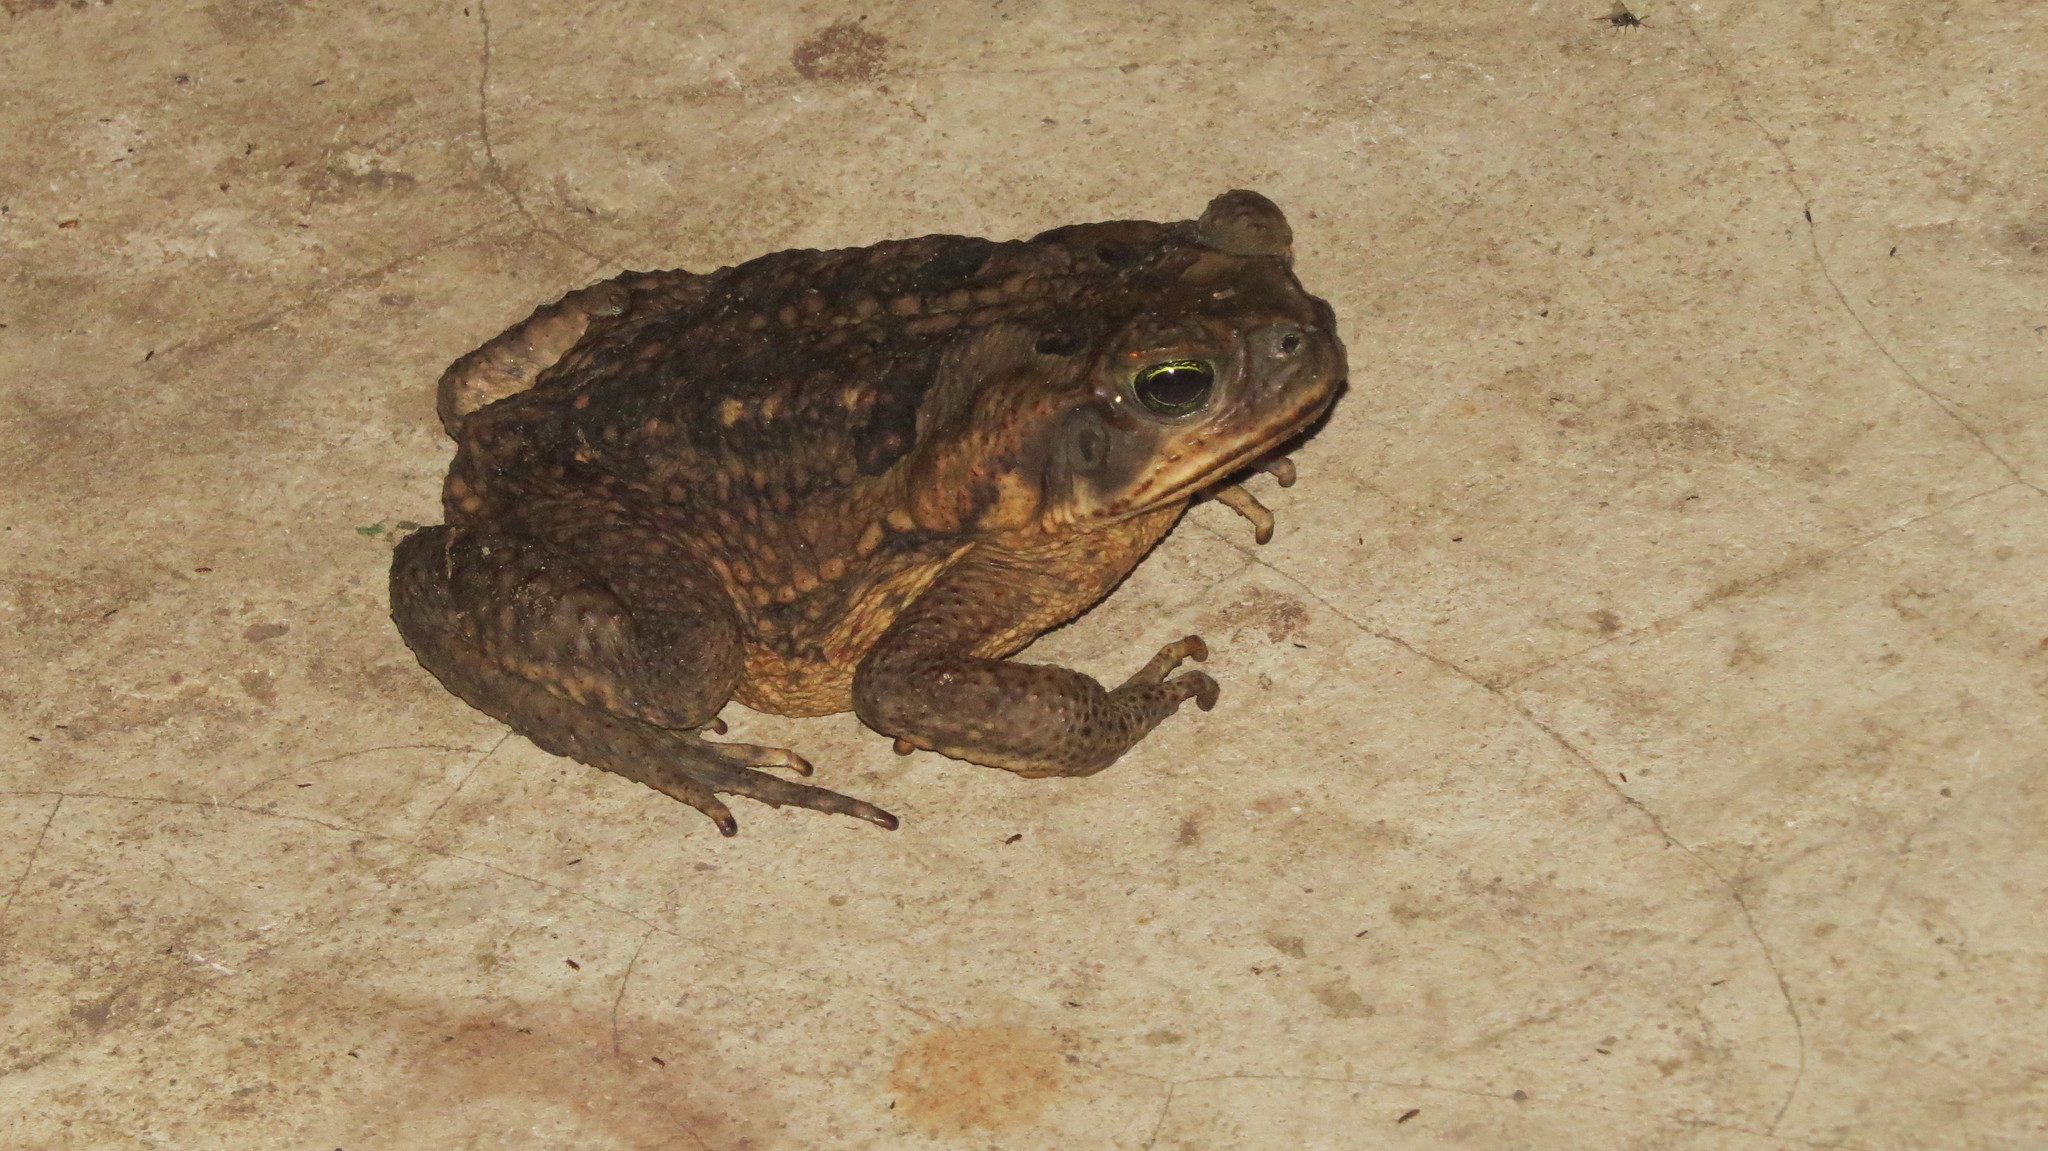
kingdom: Animalia
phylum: Chordata
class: Amphibia
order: Anura
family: Bufonidae
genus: Rhinella
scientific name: Rhinella horribilis
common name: Mesoamerican cane toad
